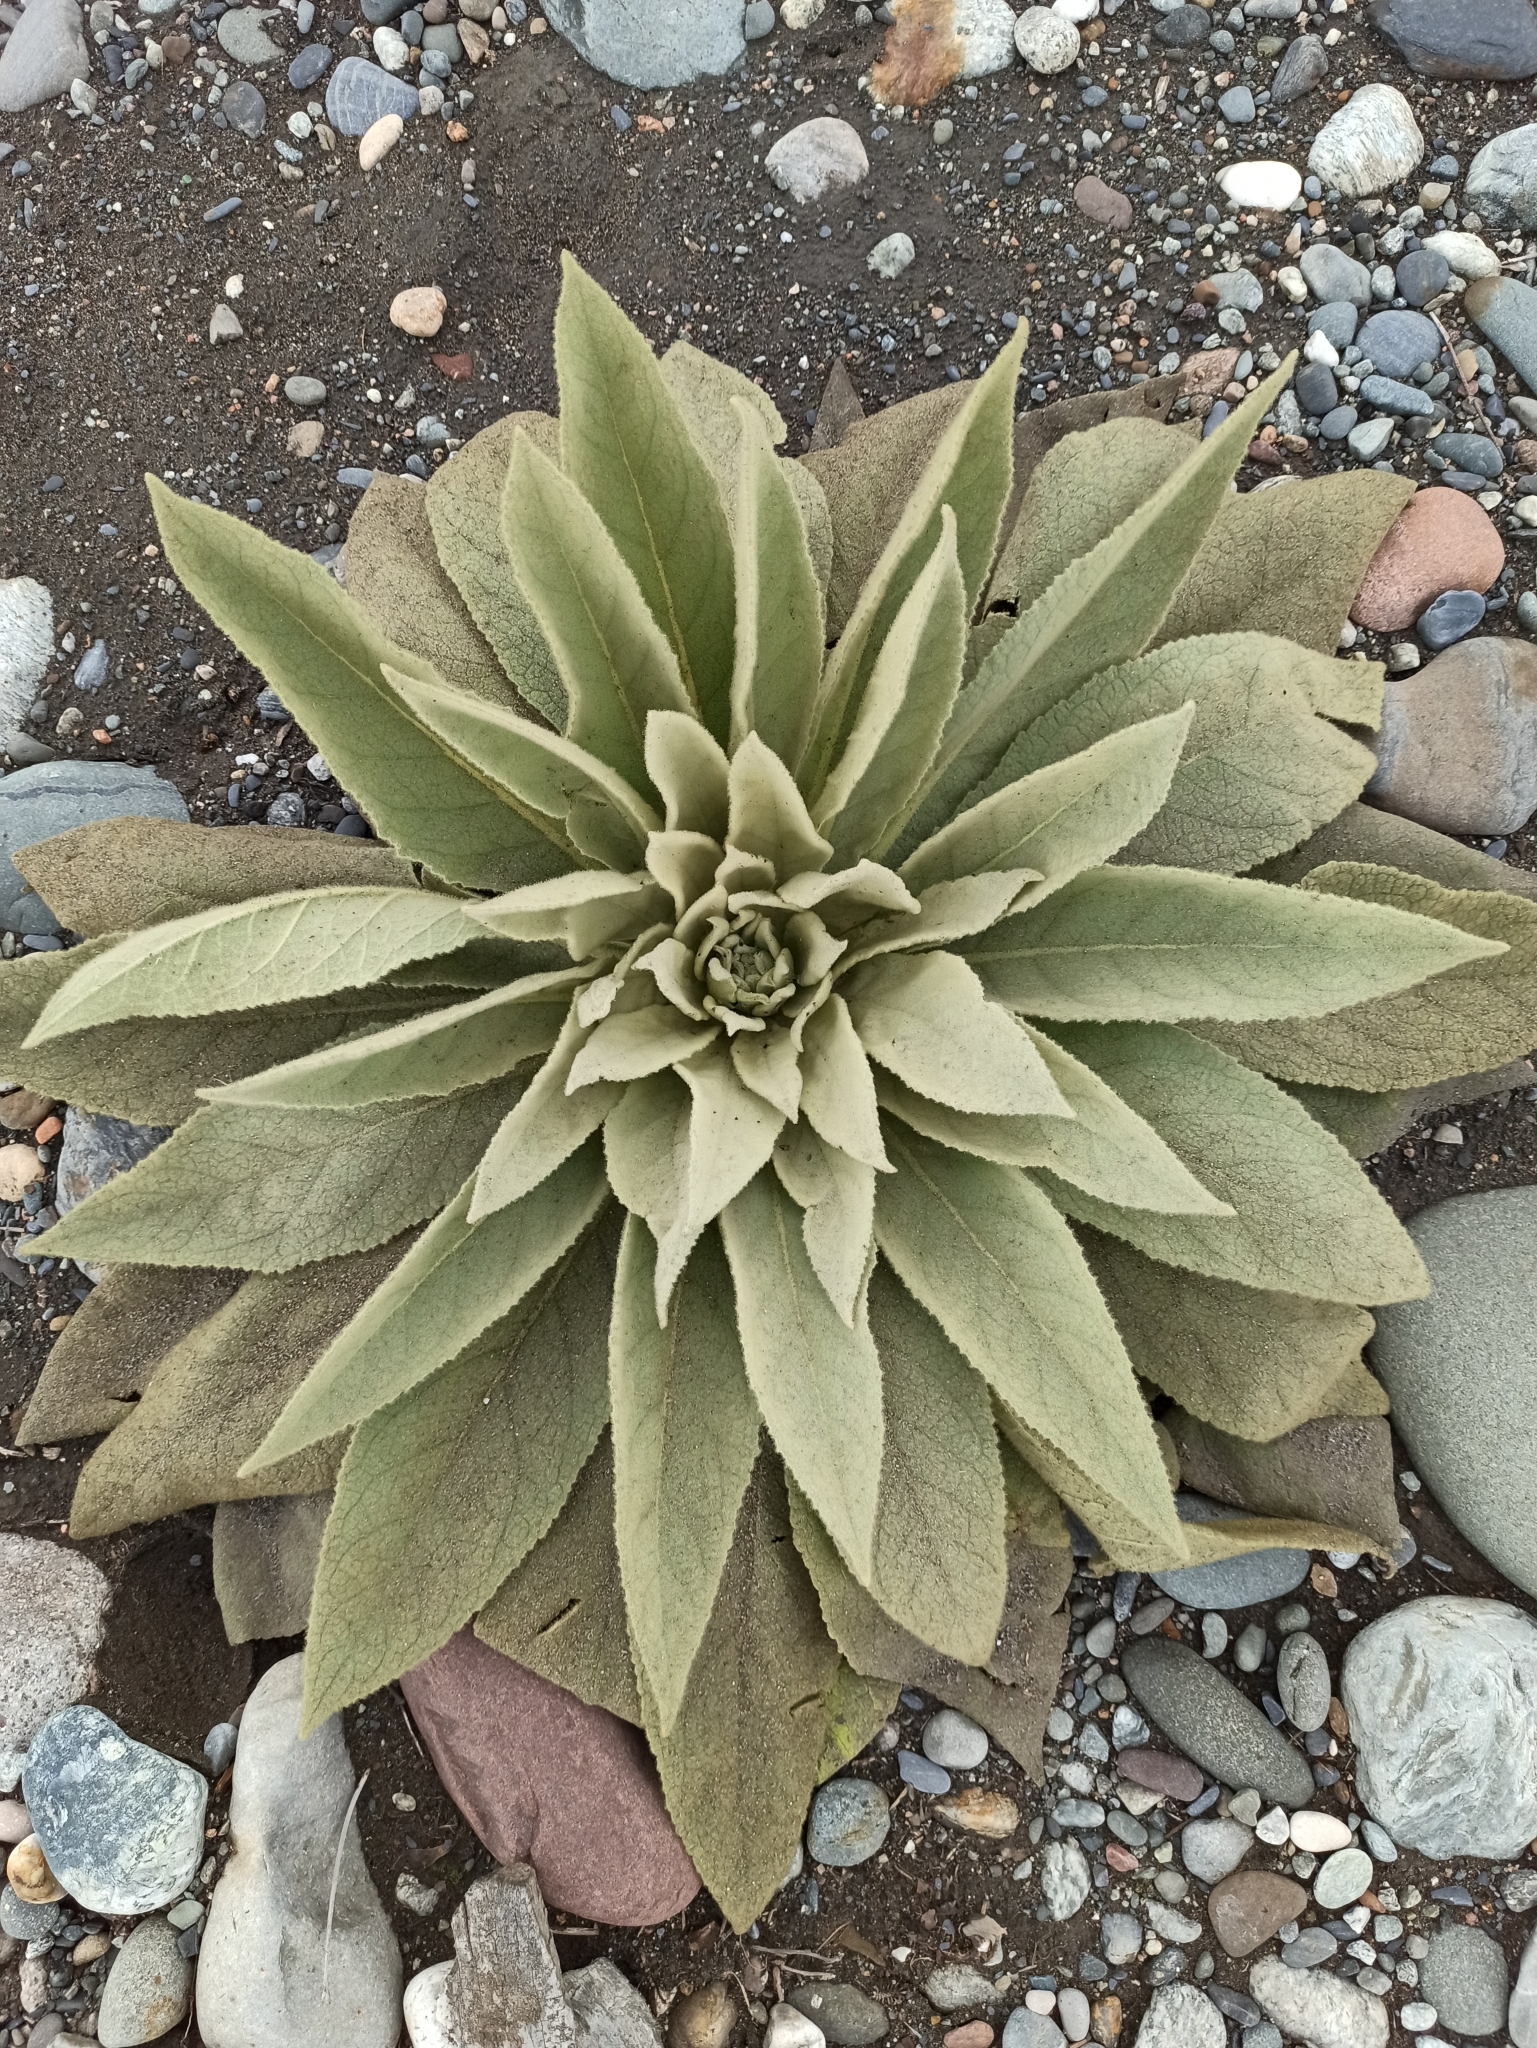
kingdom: Plantae
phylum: Tracheophyta
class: Magnoliopsida
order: Lamiales
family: Scrophulariaceae
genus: Verbascum
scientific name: Verbascum thapsus
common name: Common mullein
